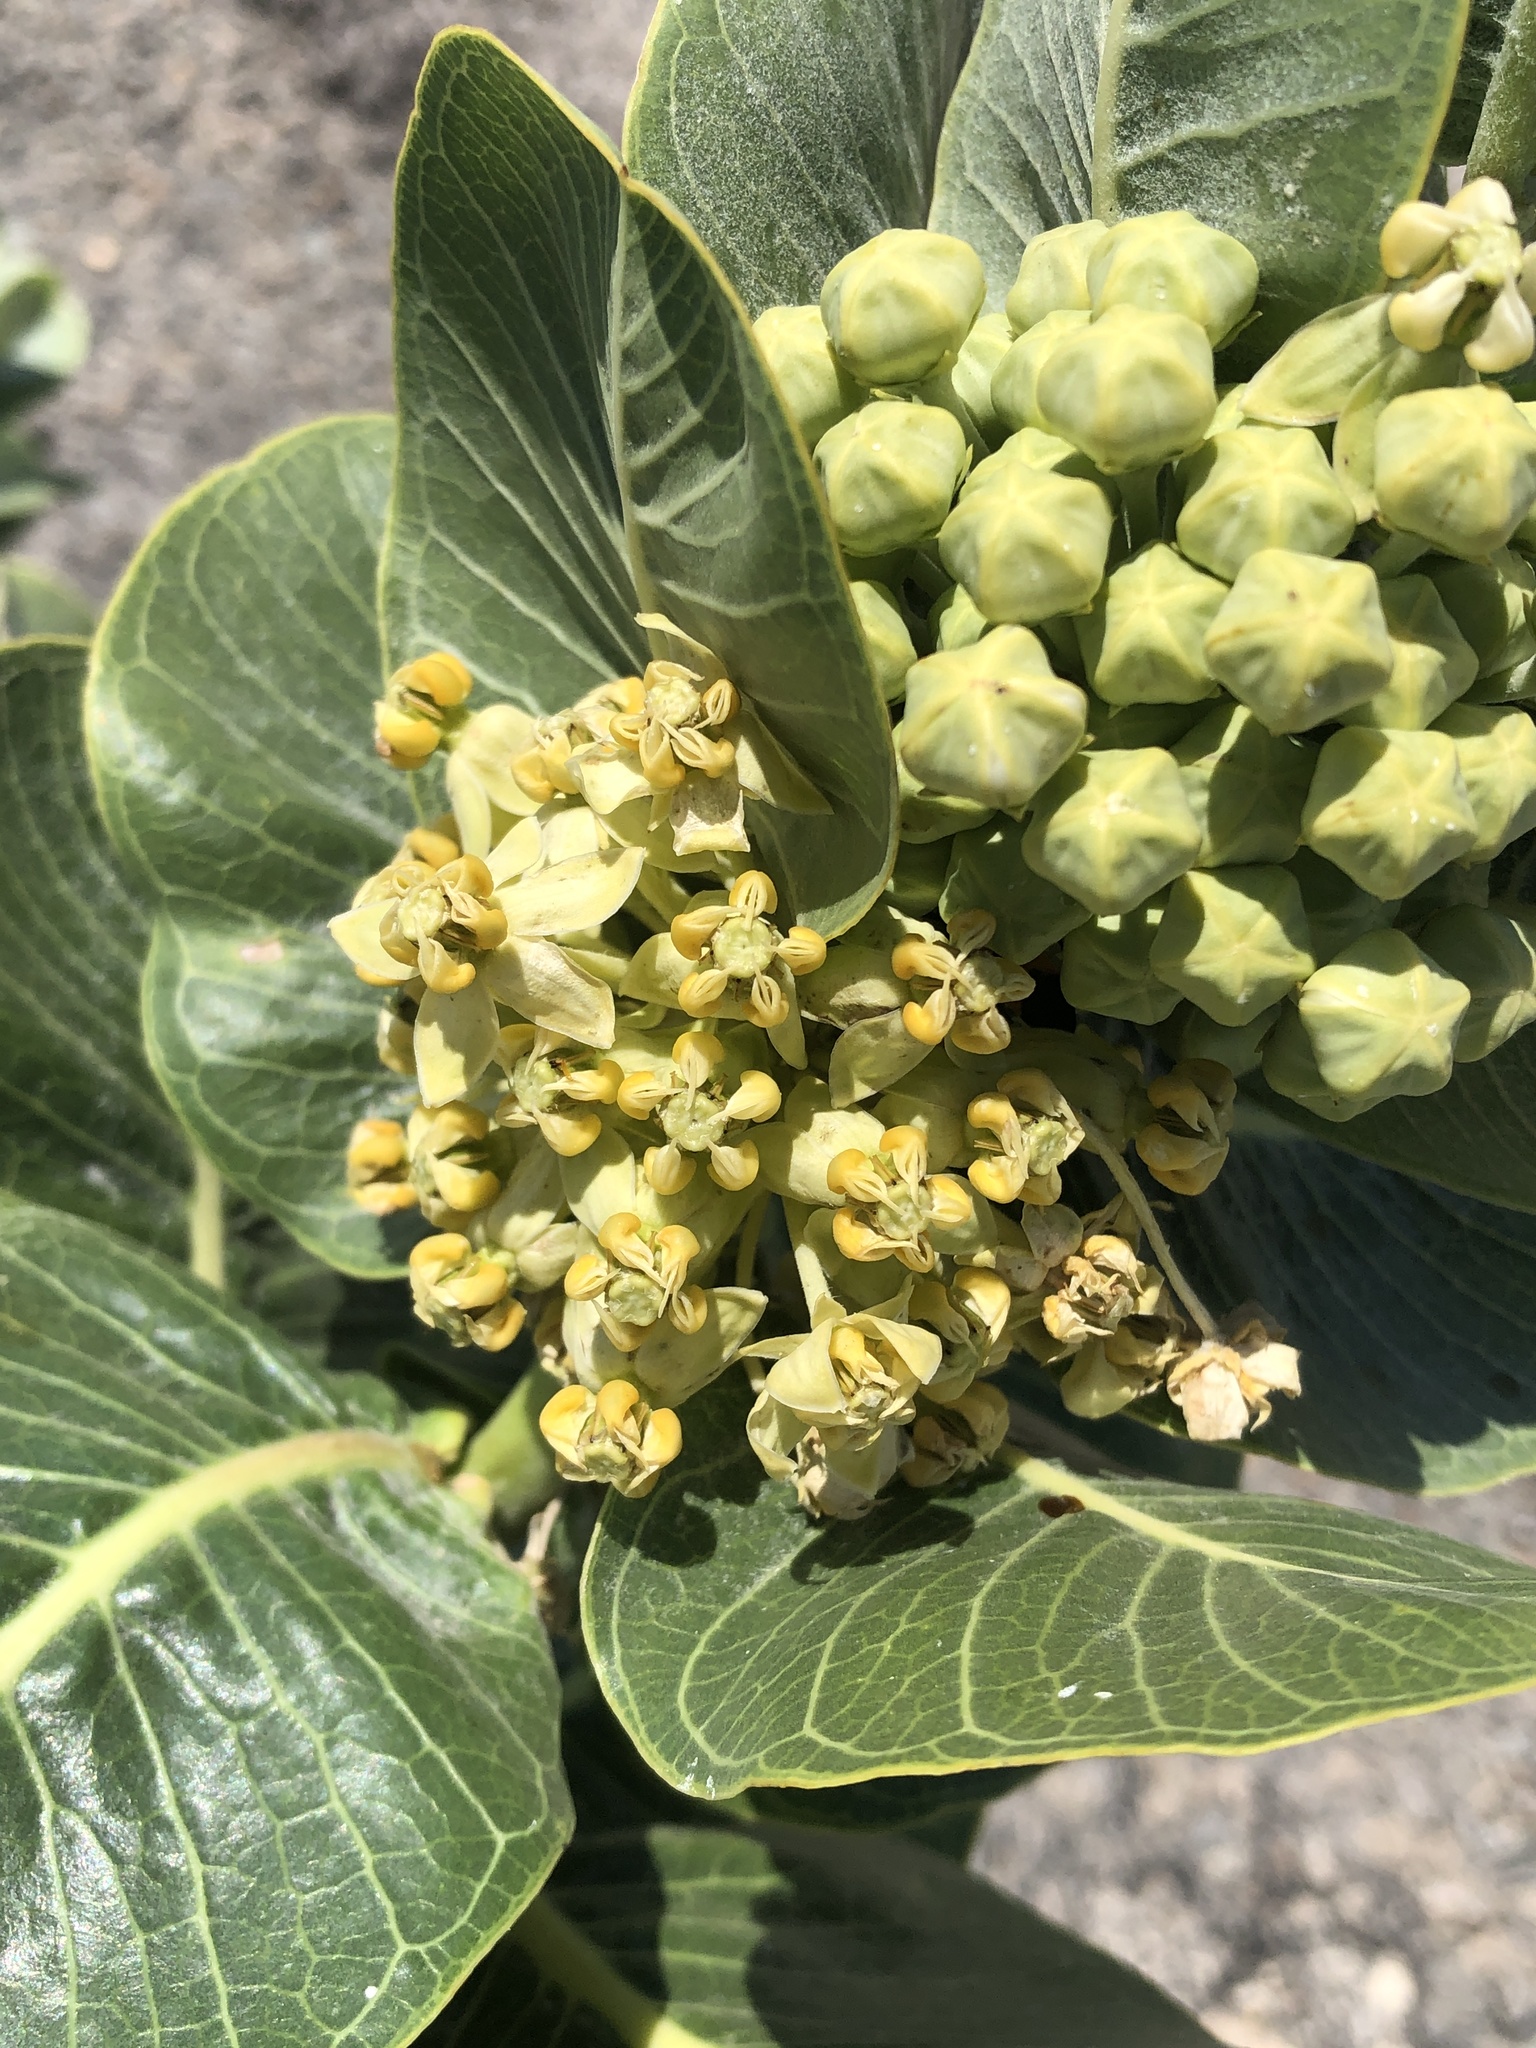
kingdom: Plantae
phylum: Tracheophyta
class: Magnoliopsida
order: Gentianales
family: Apocynaceae
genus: Asclepias
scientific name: Asclepias latifolia
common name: Broadleaf milkweed
